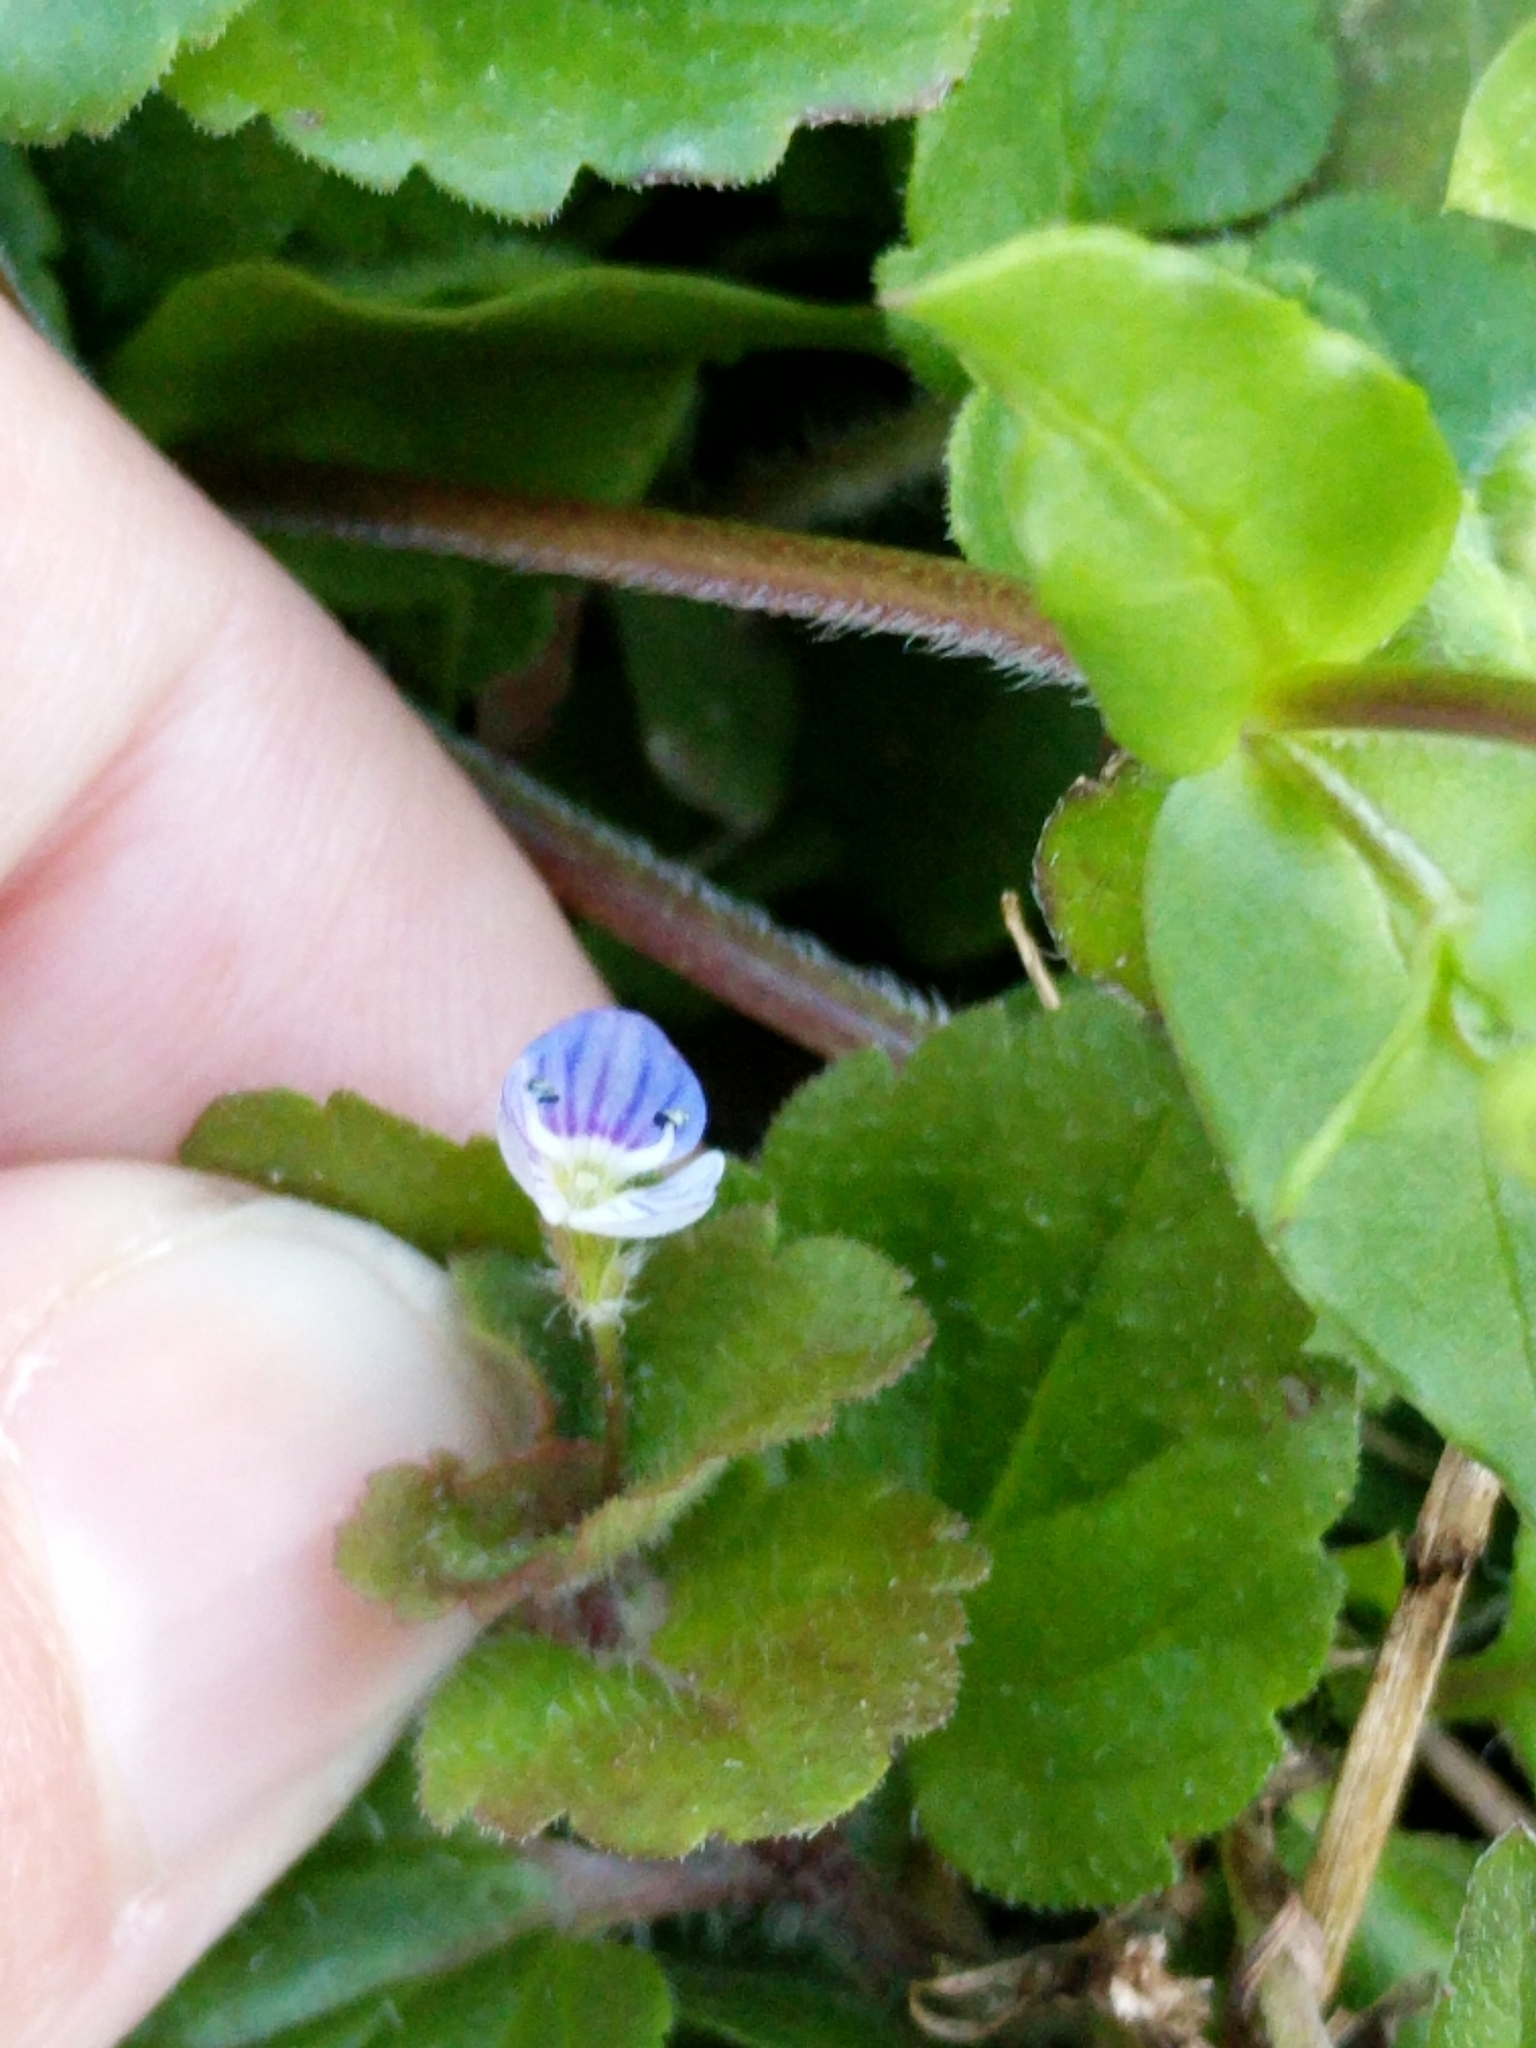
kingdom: Plantae
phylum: Tracheophyta
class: Magnoliopsida
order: Lamiales
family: Plantaginaceae
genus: Veronica
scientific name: Veronica persica
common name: Common field-speedwell
